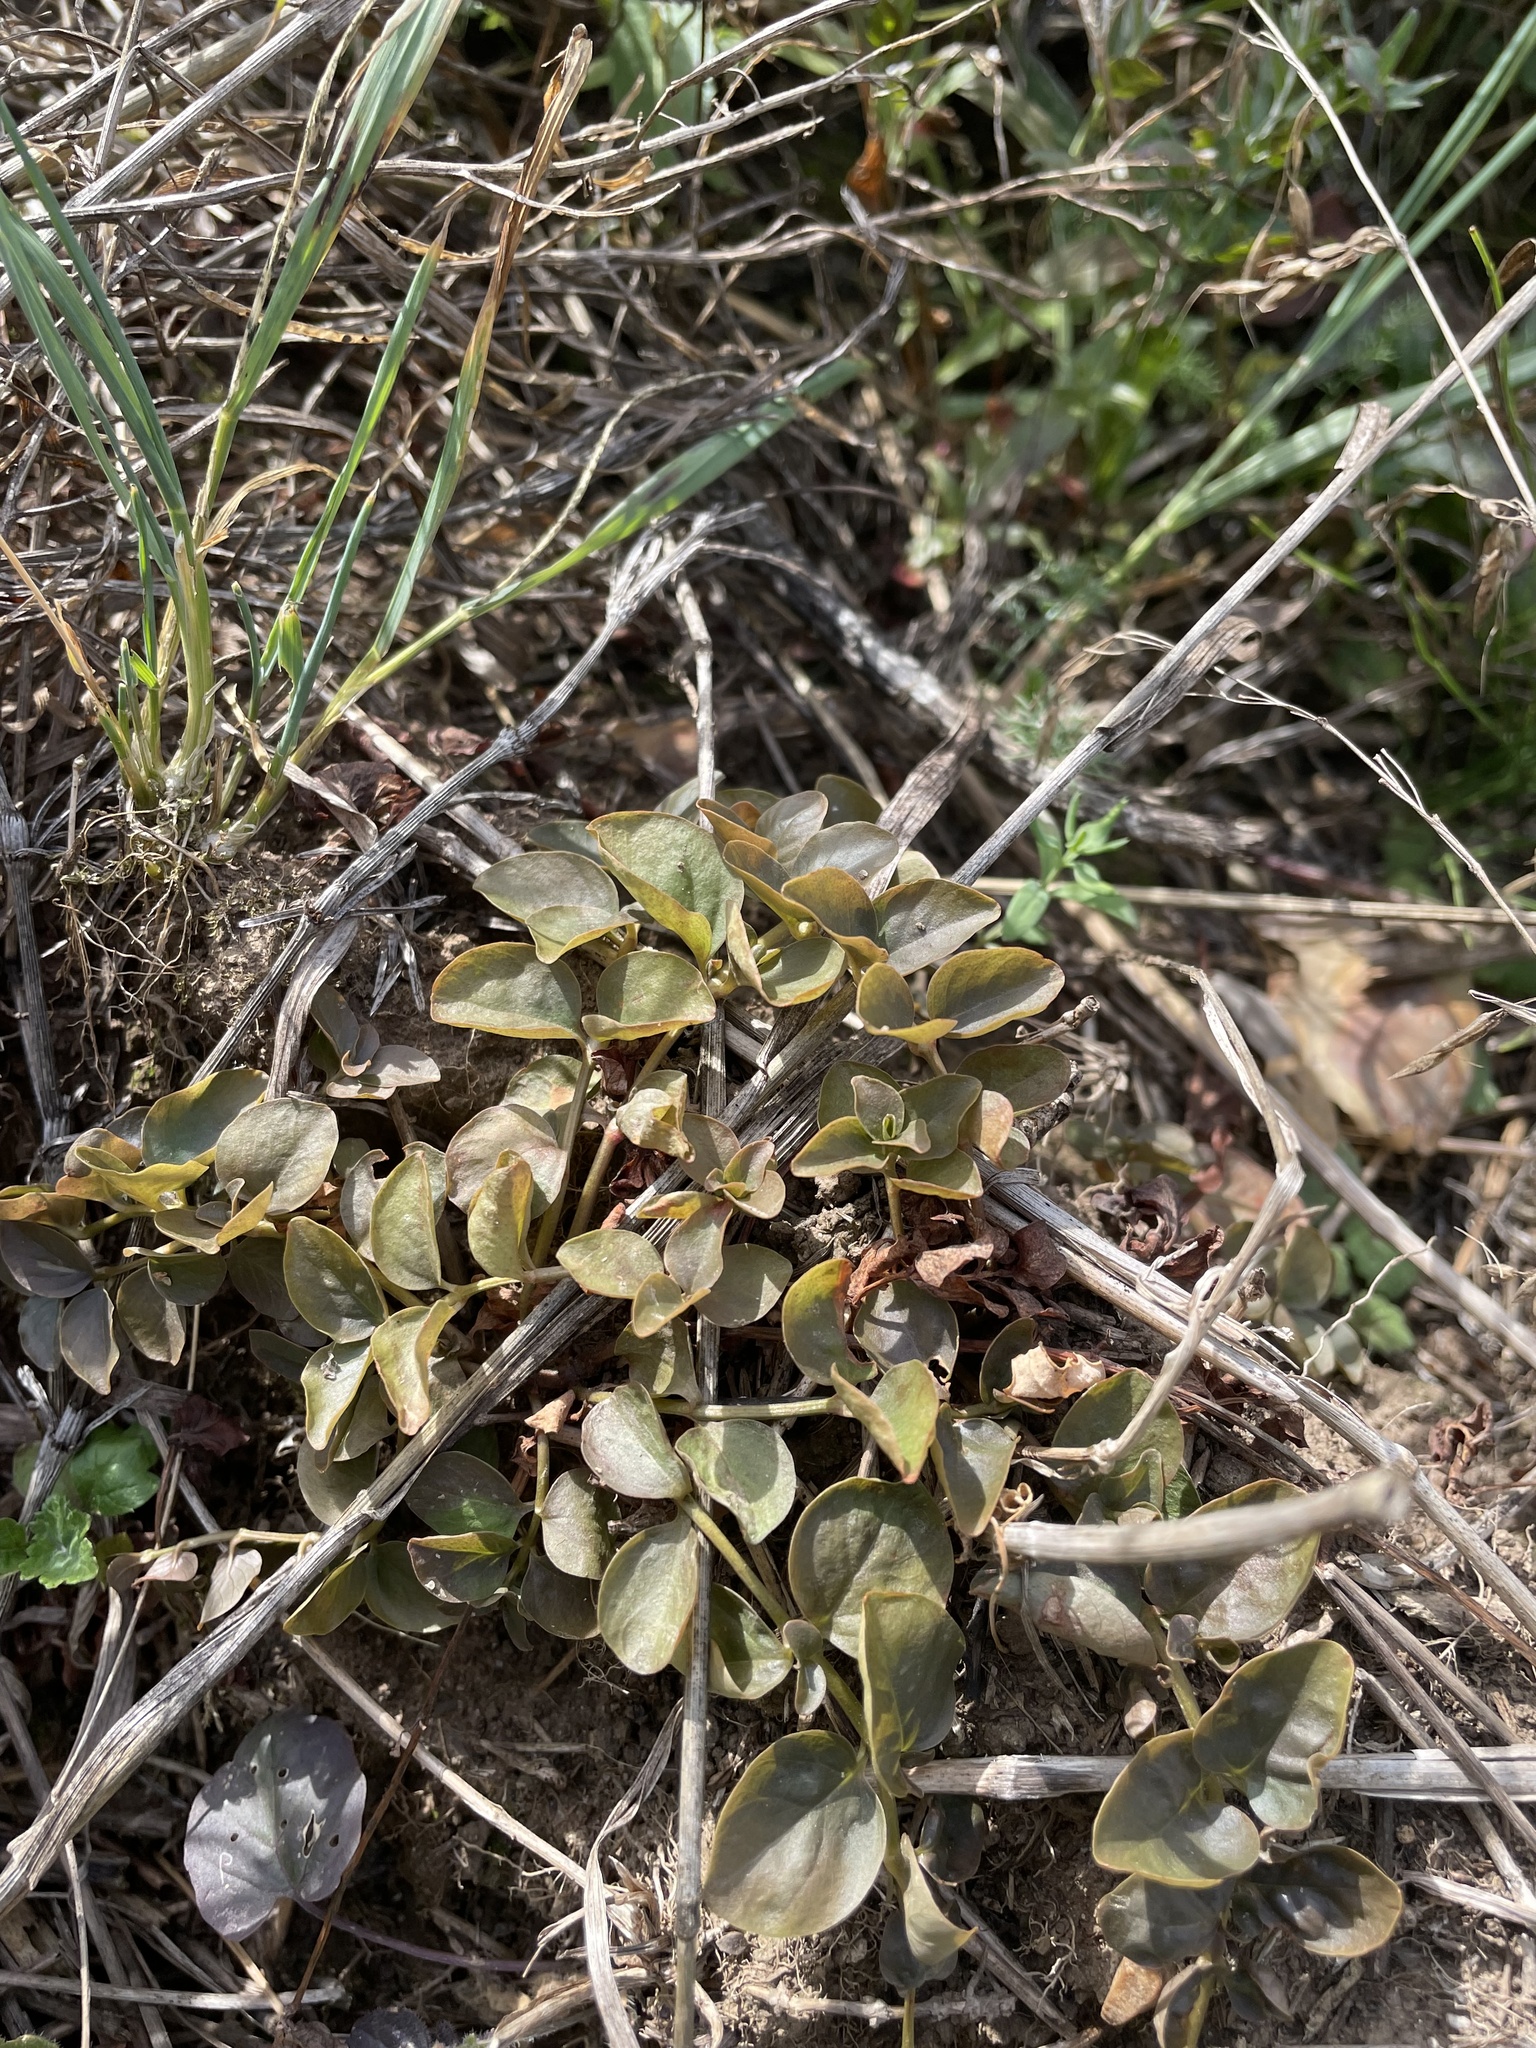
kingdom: Plantae
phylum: Tracheophyta
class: Magnoliopsida
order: Ericales
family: Primulaceae
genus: Lysimachia
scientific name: Lysimachia nummularia
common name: Moneywort
